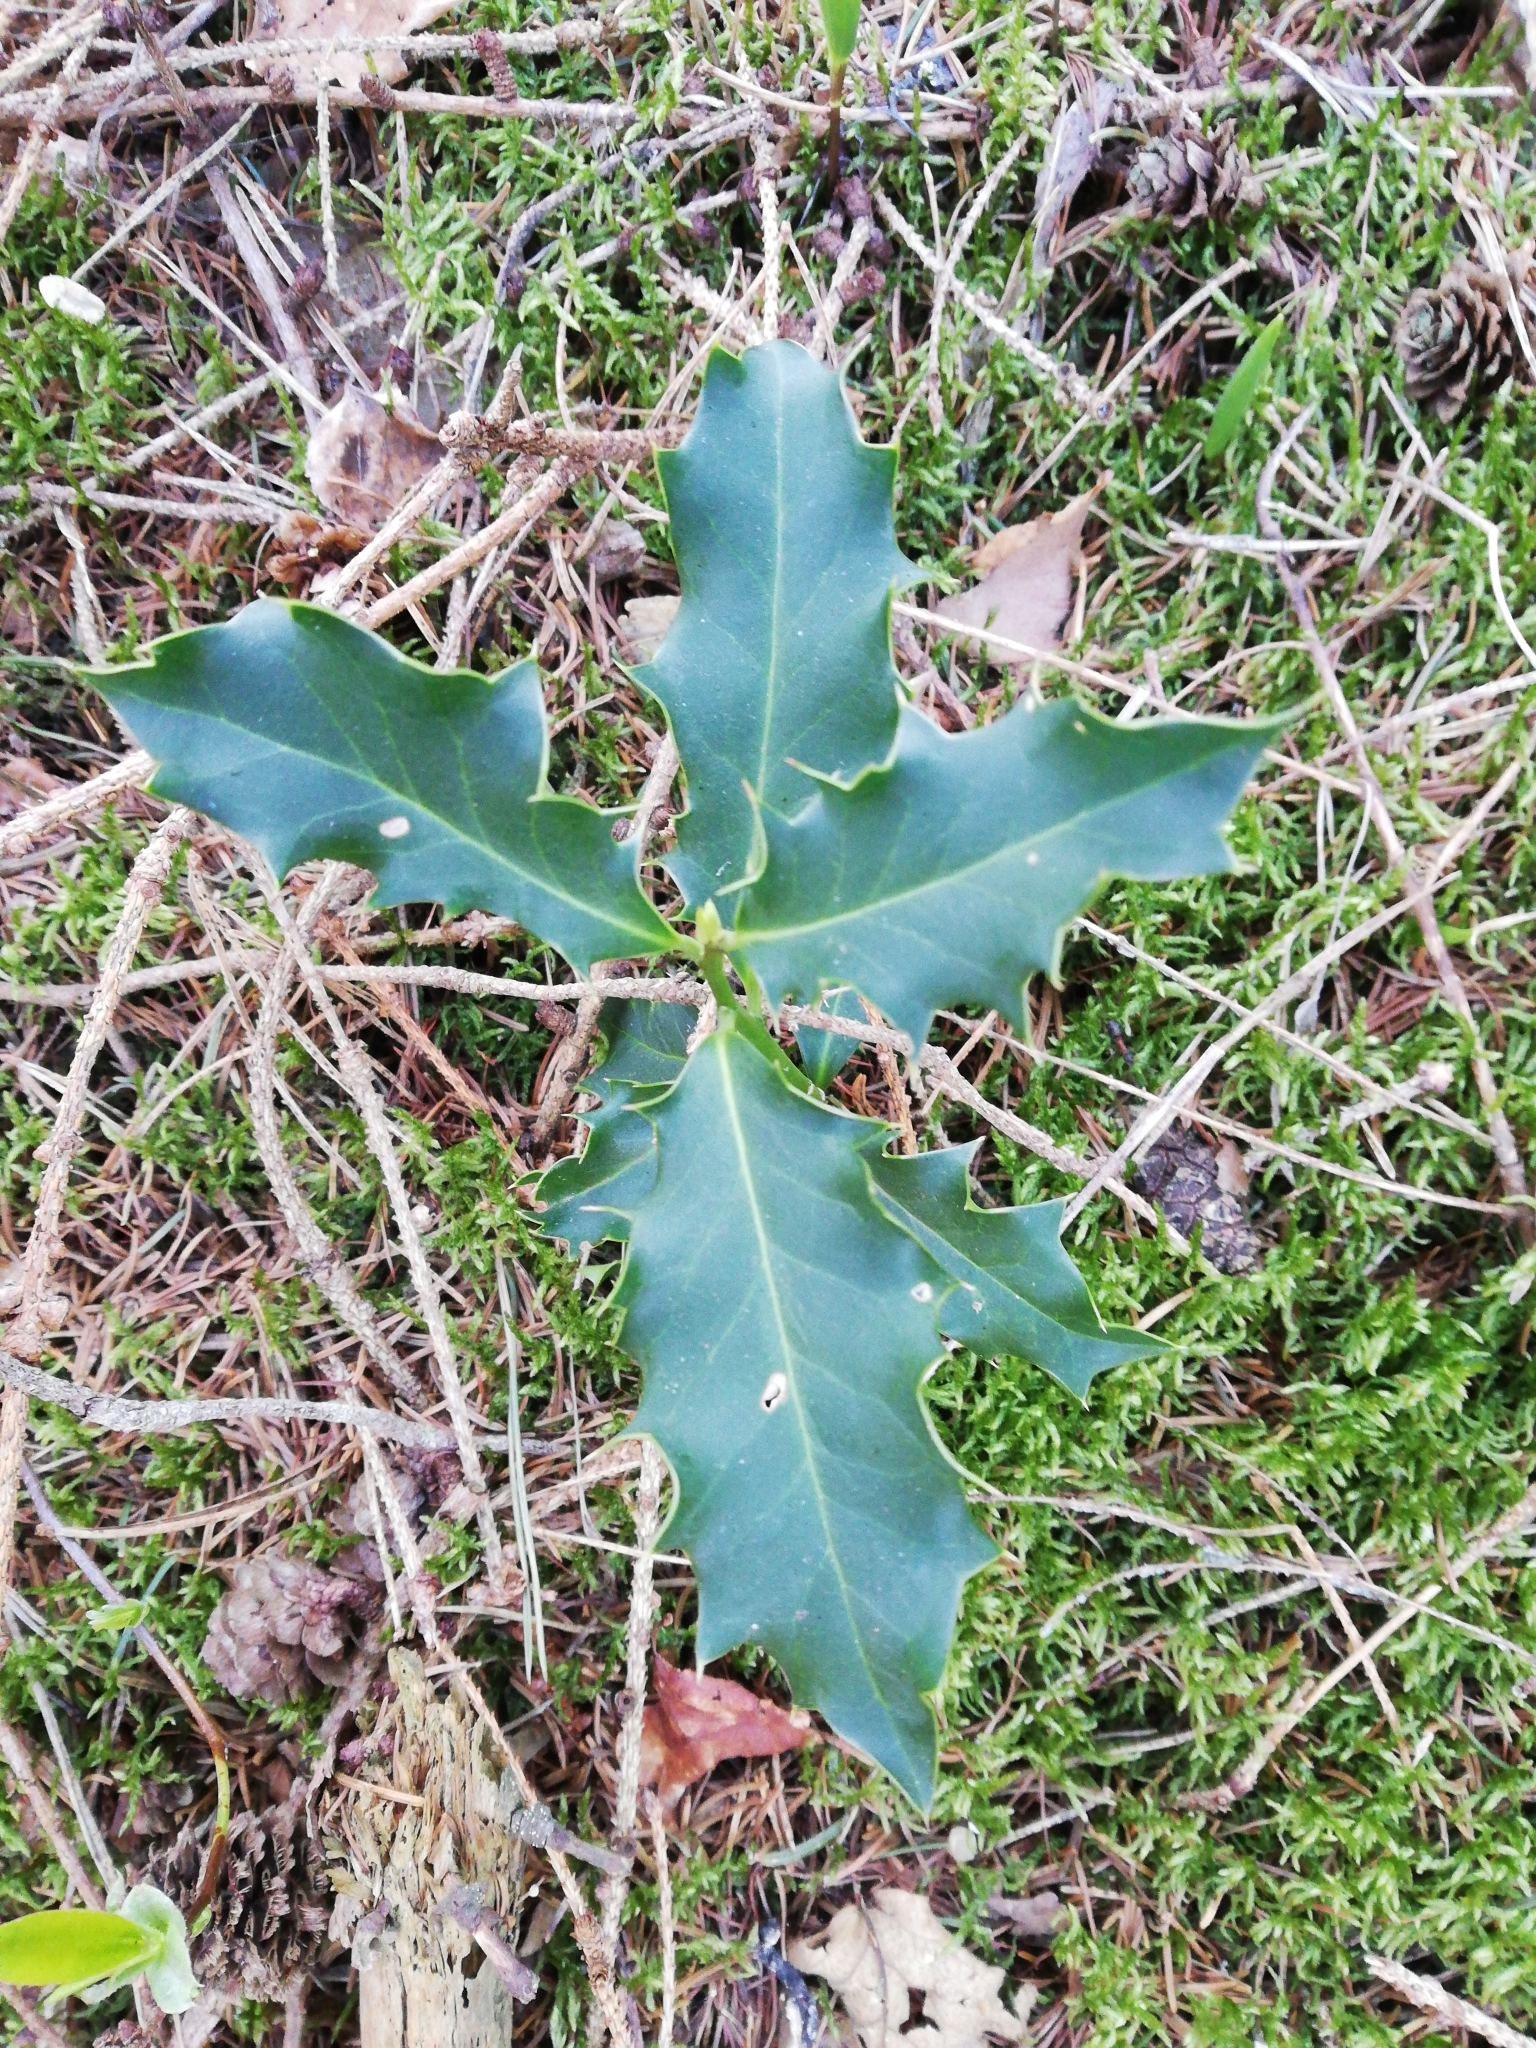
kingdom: Plantae
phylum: Tracheophyta
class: Magnoliopsida
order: Aquifoliales
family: Aquifoliaceae
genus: Ilex
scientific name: Ilex aquifolium
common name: English holly
